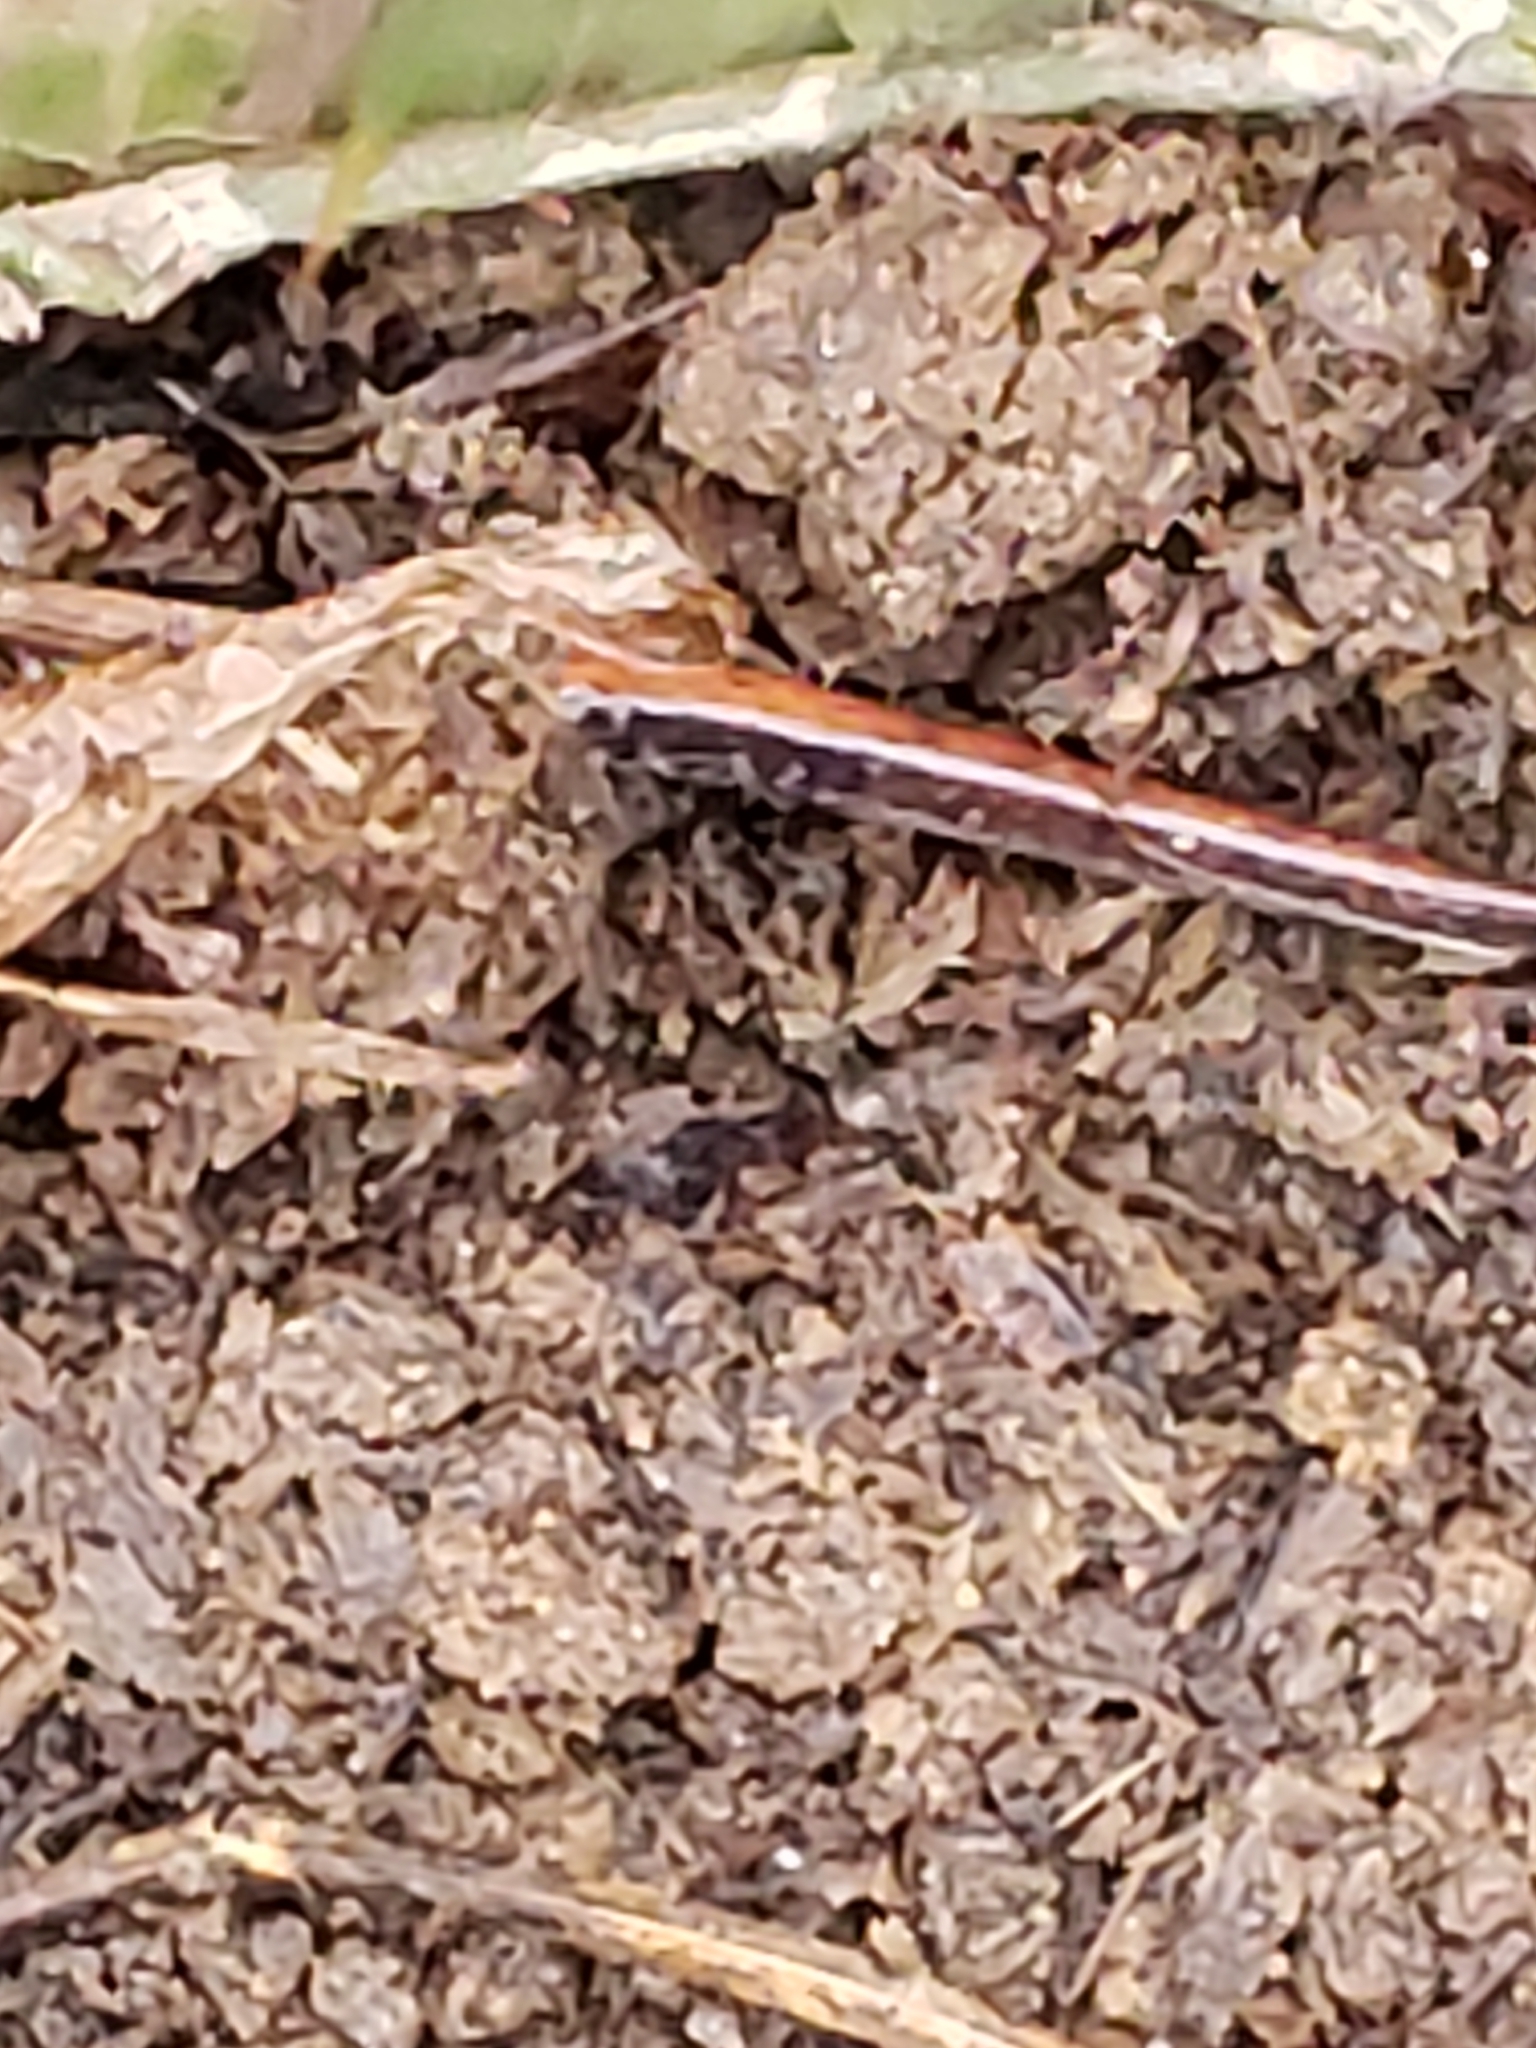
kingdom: Animalia
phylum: Chordata
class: Amphibia
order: Caudata
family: Plethodontidae
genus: Plethodon
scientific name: Plethodon cinereus
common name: Redback salamander
